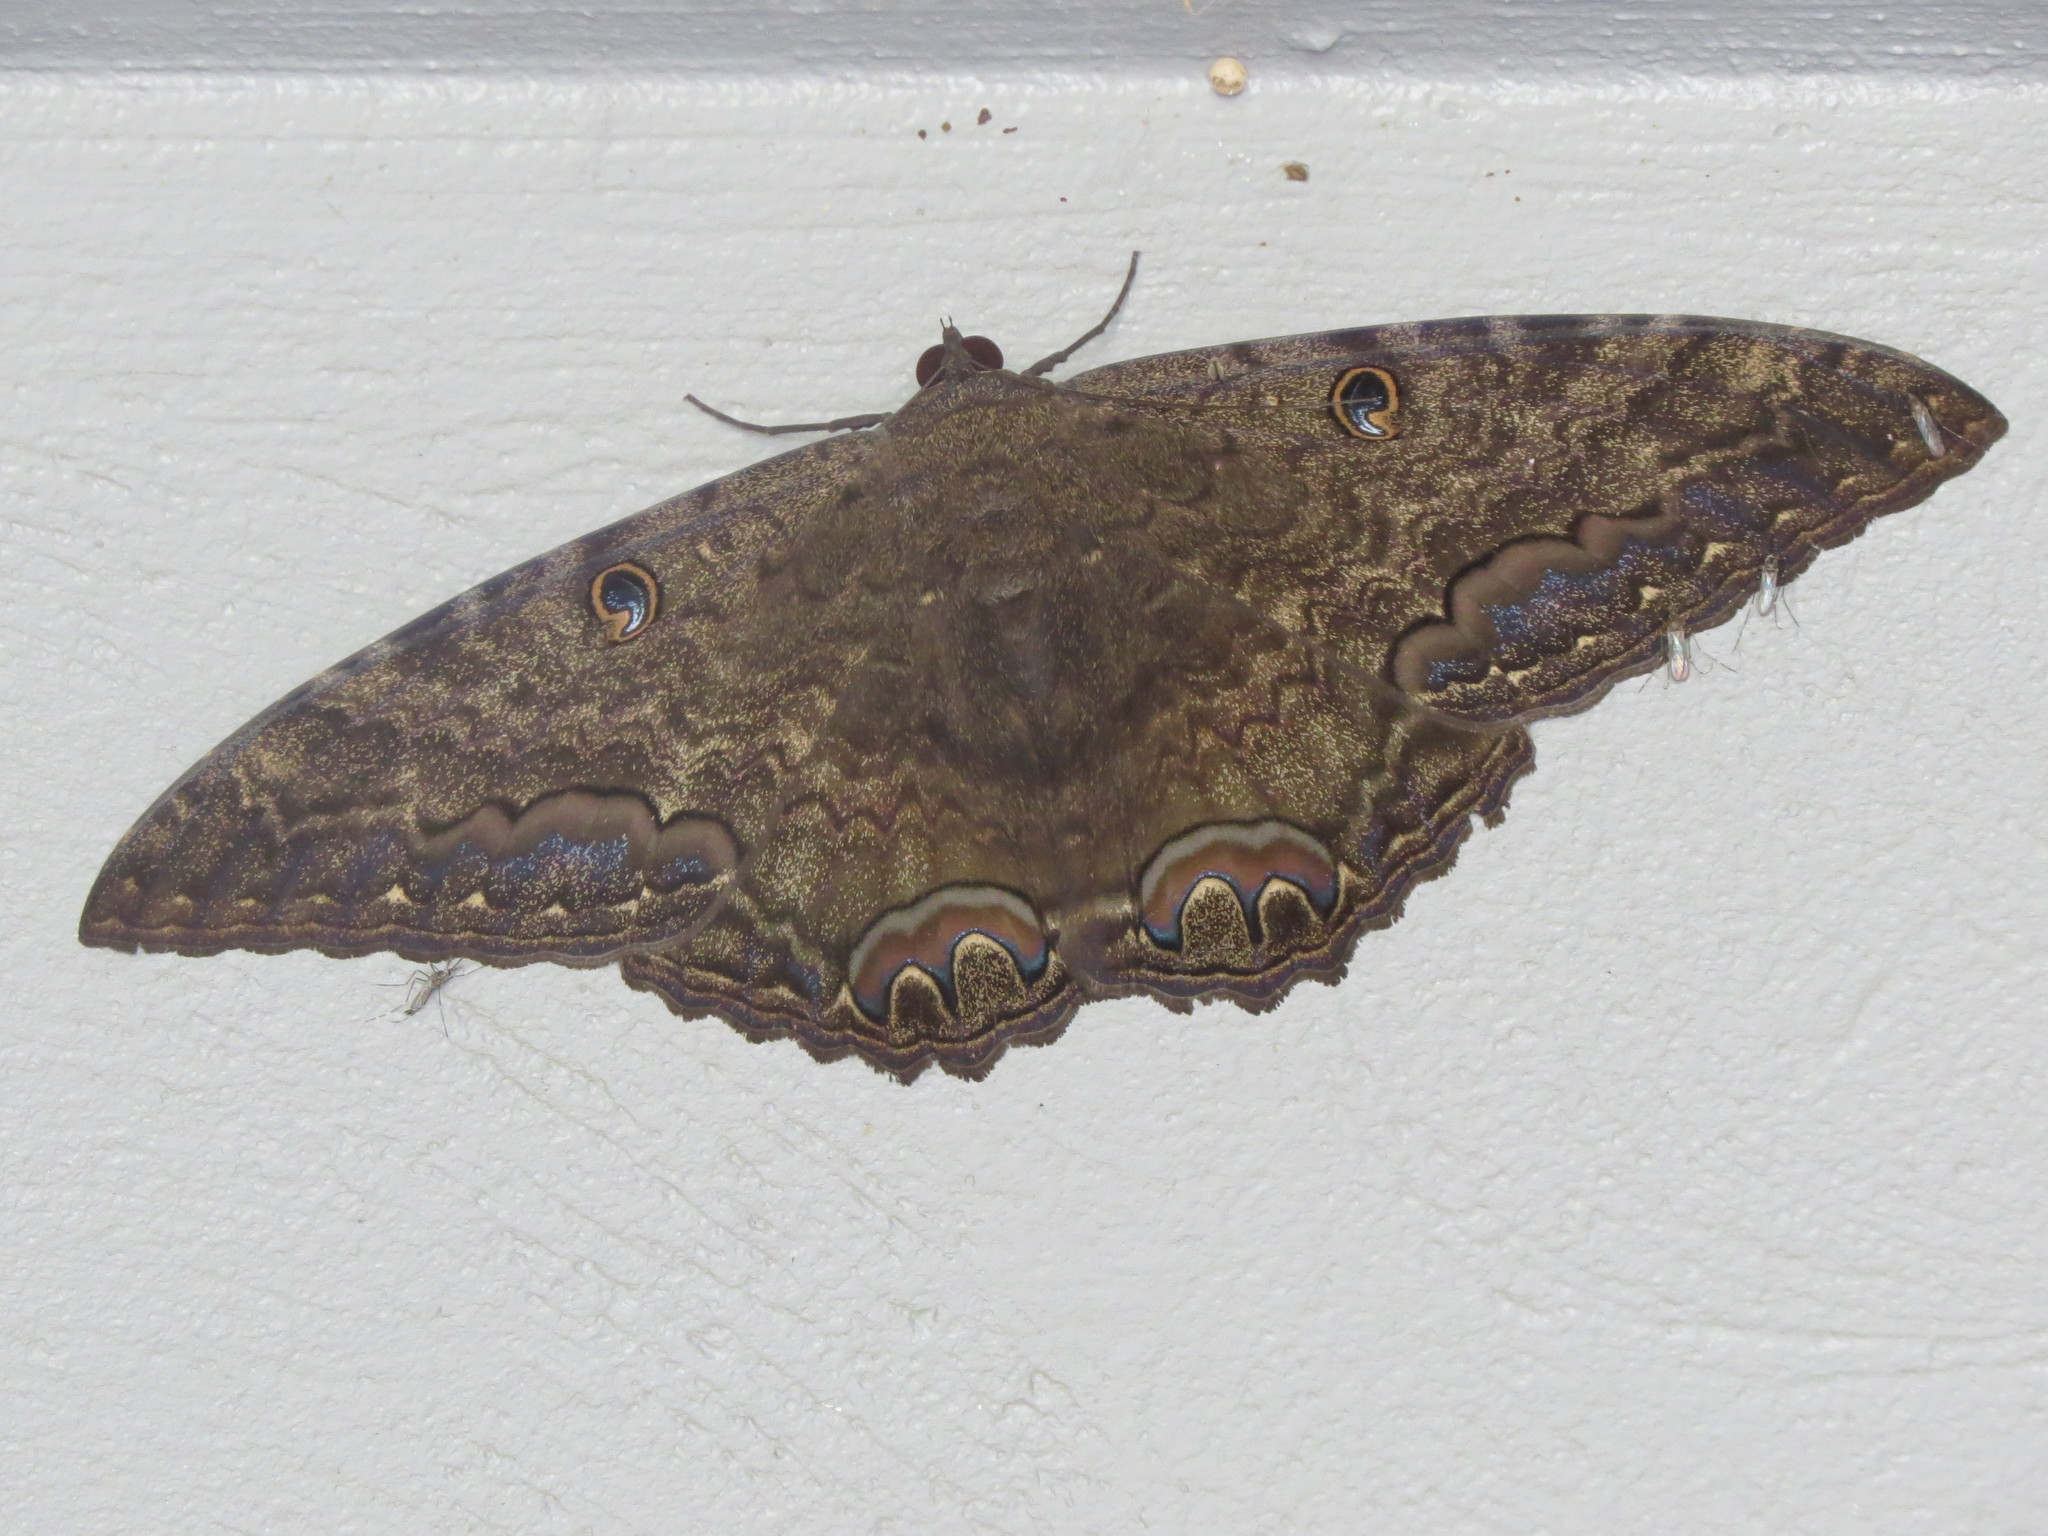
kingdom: Animalia
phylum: Arthropoda
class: Insecta
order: Lepidoptera
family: Erebidae
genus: Ascalapha
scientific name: Ascalapha odorata
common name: Black witch
